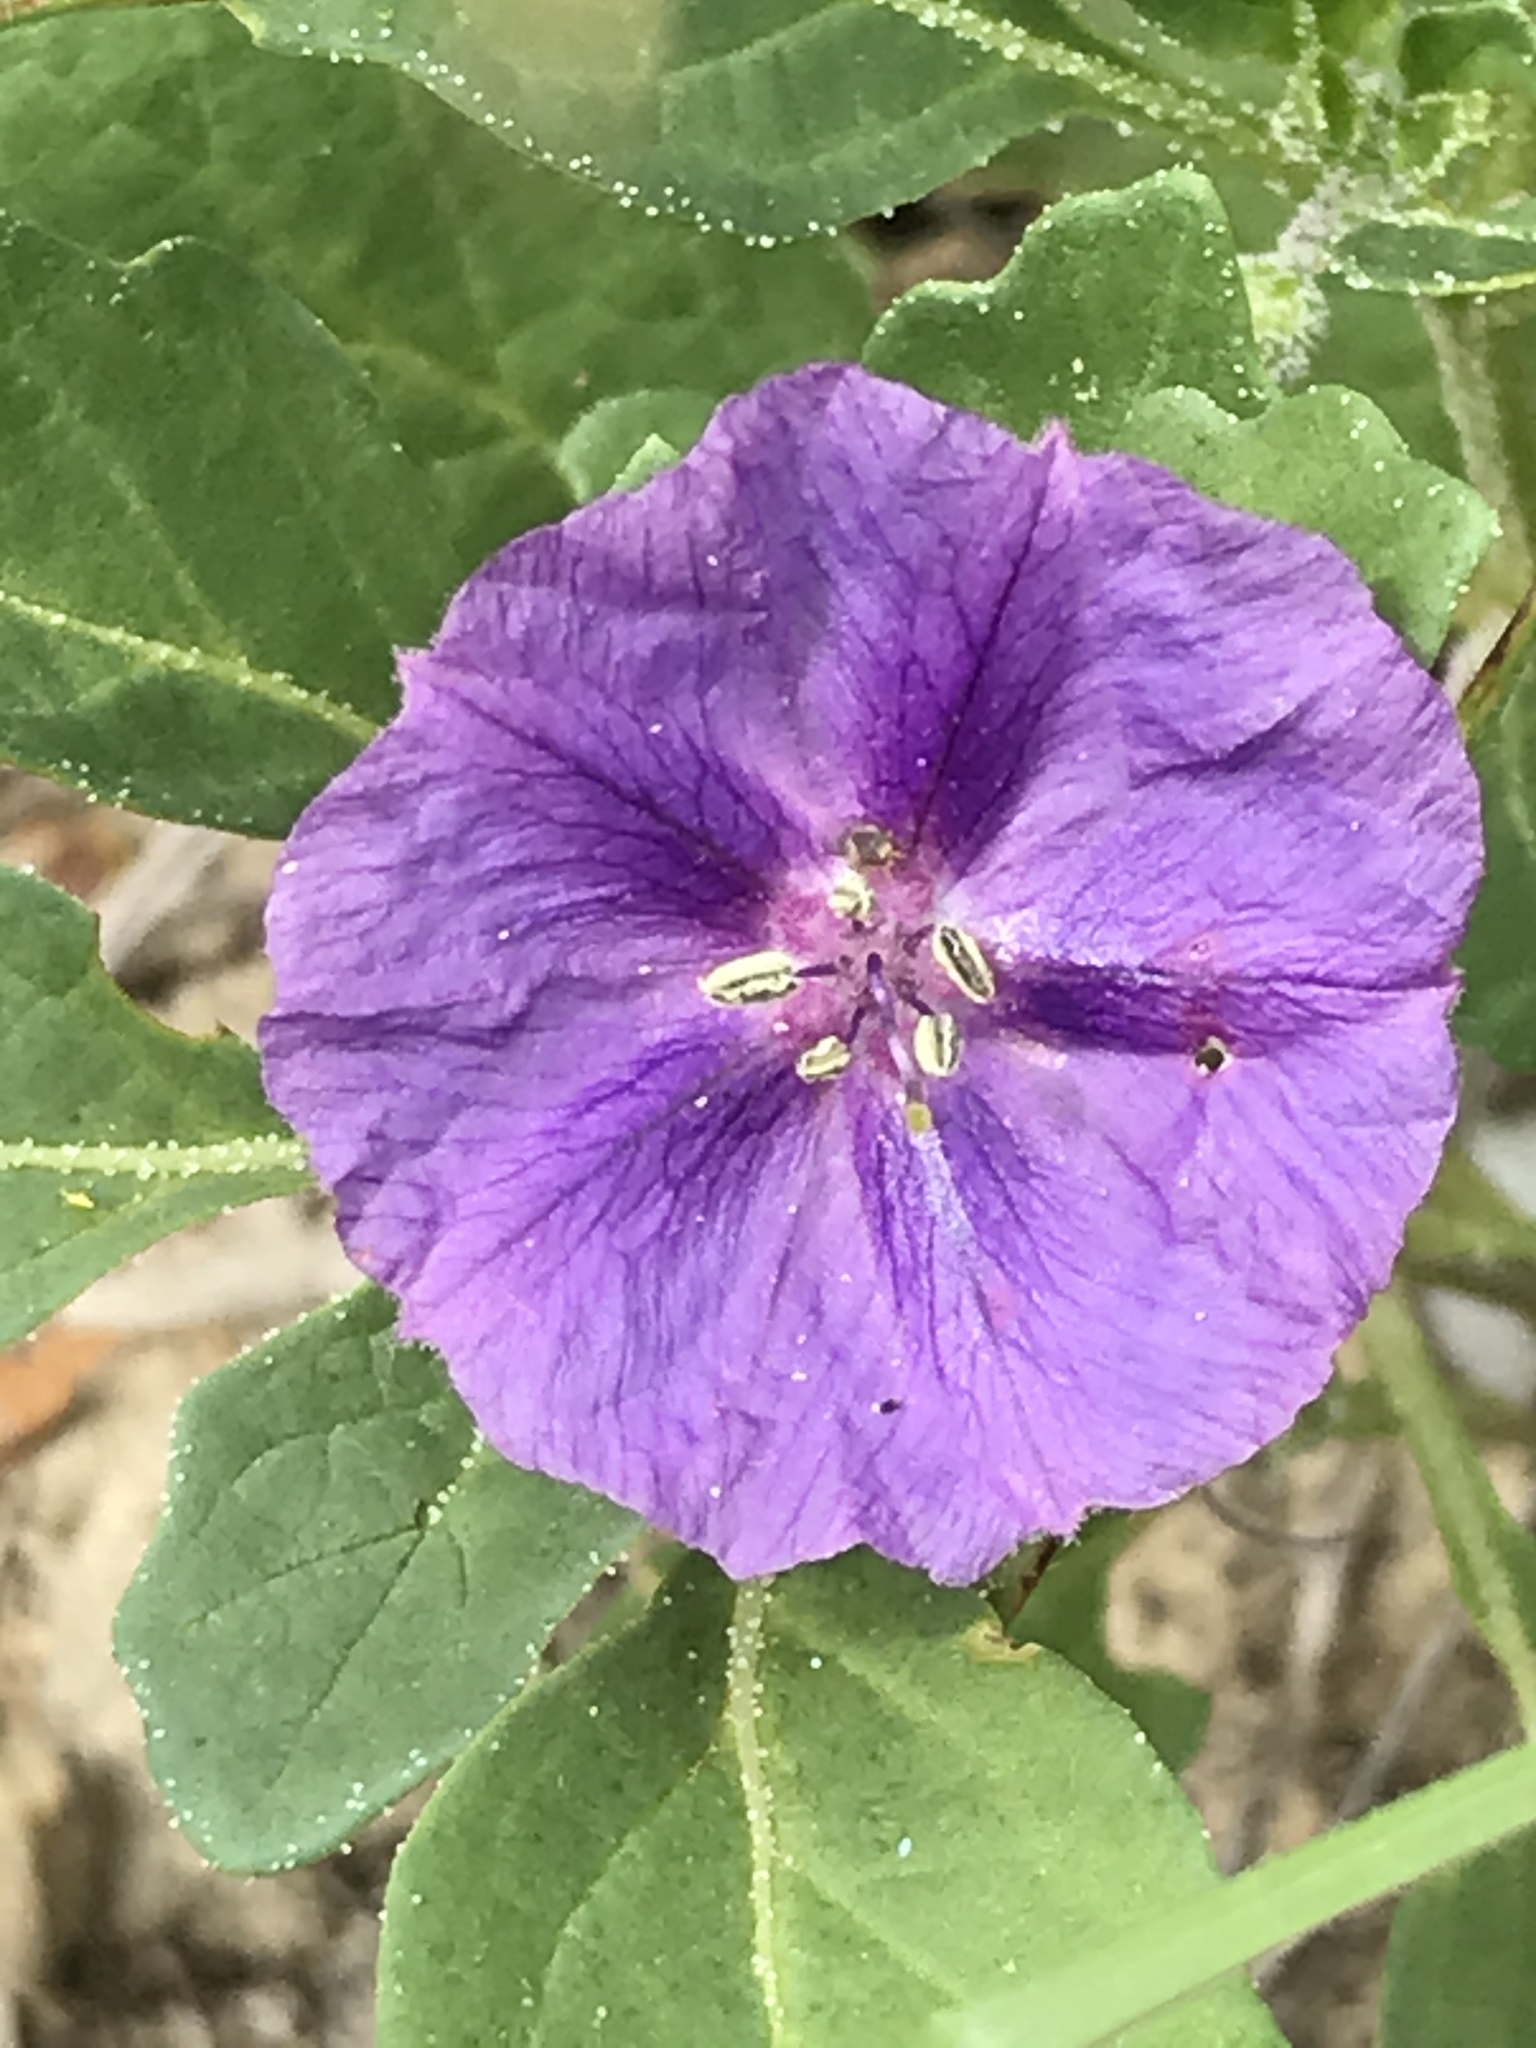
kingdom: Plantae
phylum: Tracheophyta
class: Magnoliopsida
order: Solanales
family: Solanaceae
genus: Quincula
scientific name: Quincula lobata
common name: Purple-ground-cherry
